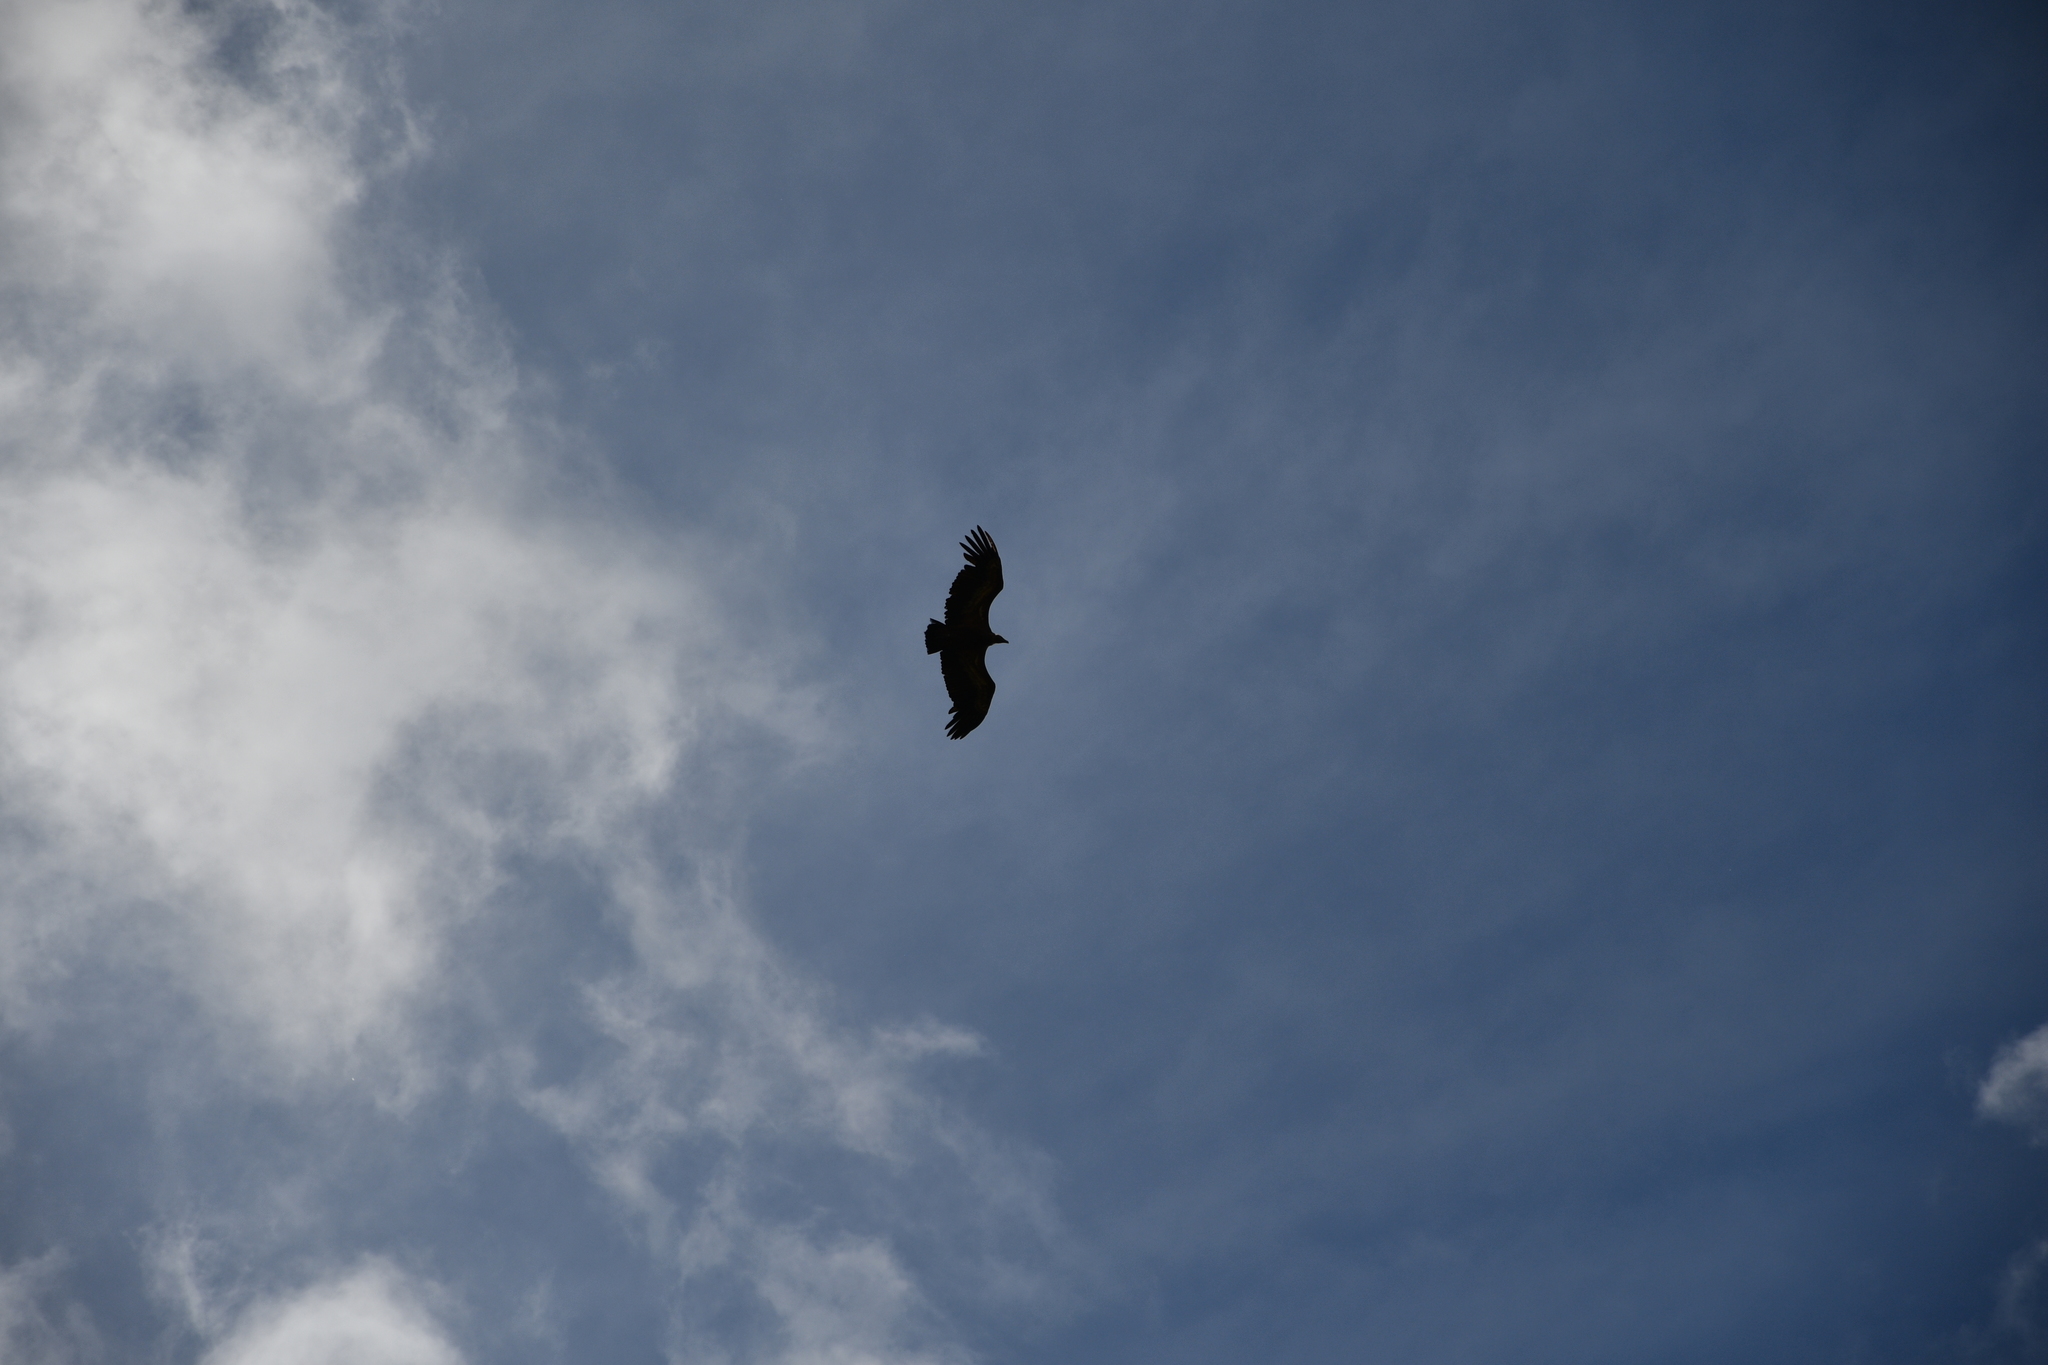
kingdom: Animalia
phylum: Chordata
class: Aves
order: Accipitriformes
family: Accipitridae
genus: Gyps
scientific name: Gyps fulvus
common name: Griffon vulture
